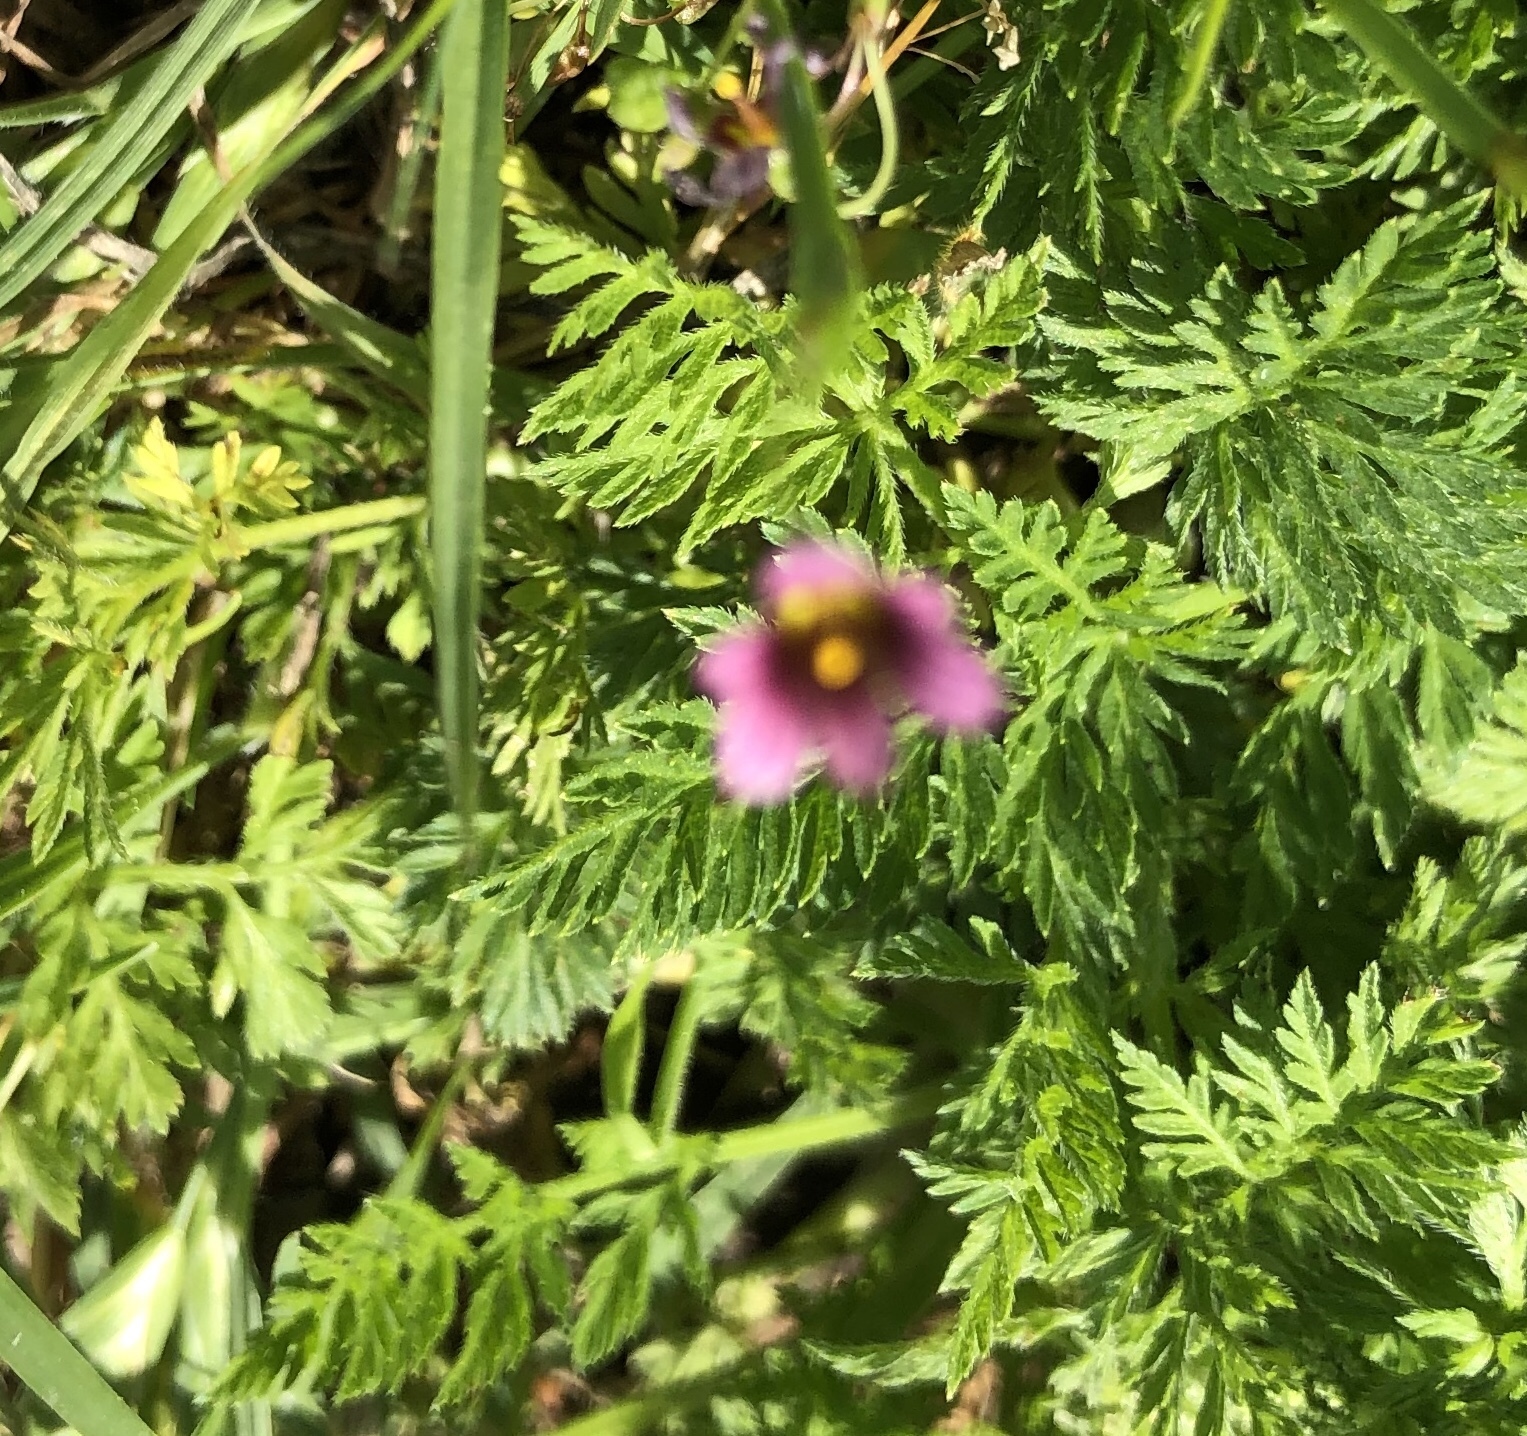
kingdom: Plantae
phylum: Tracheophyta
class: Magnoliopsida
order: Geraniales
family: Geraniaceae
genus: Erodium
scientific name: Erodium cicutarium
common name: Common stork's-bill
